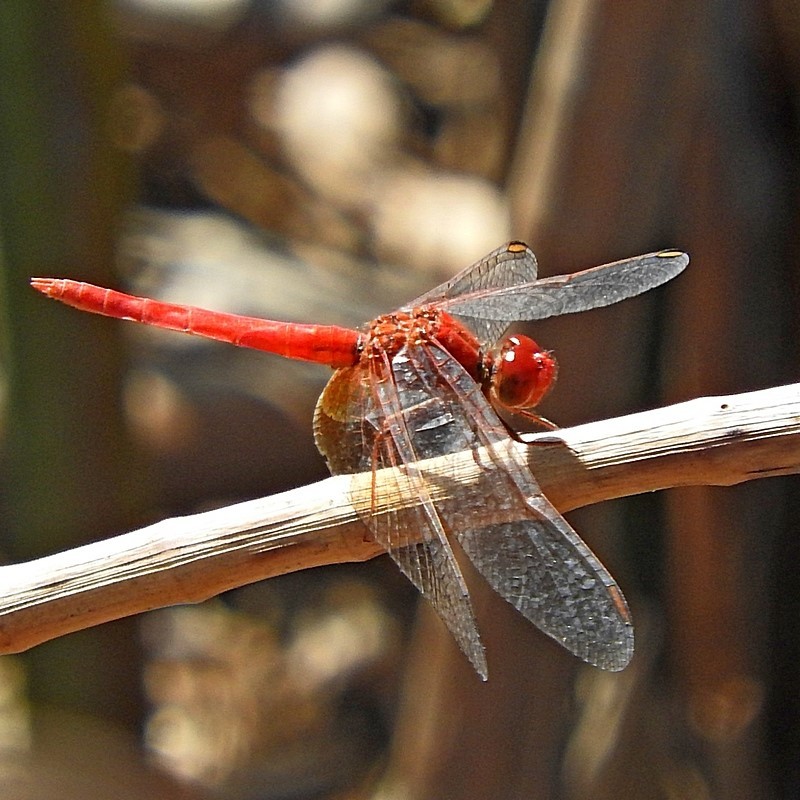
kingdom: Animalia
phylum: Arthropoda
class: Insecta
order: Odonata
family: Libellulidae
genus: Diplacodes
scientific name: Diplacodes haematodes
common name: Scarlet percher
